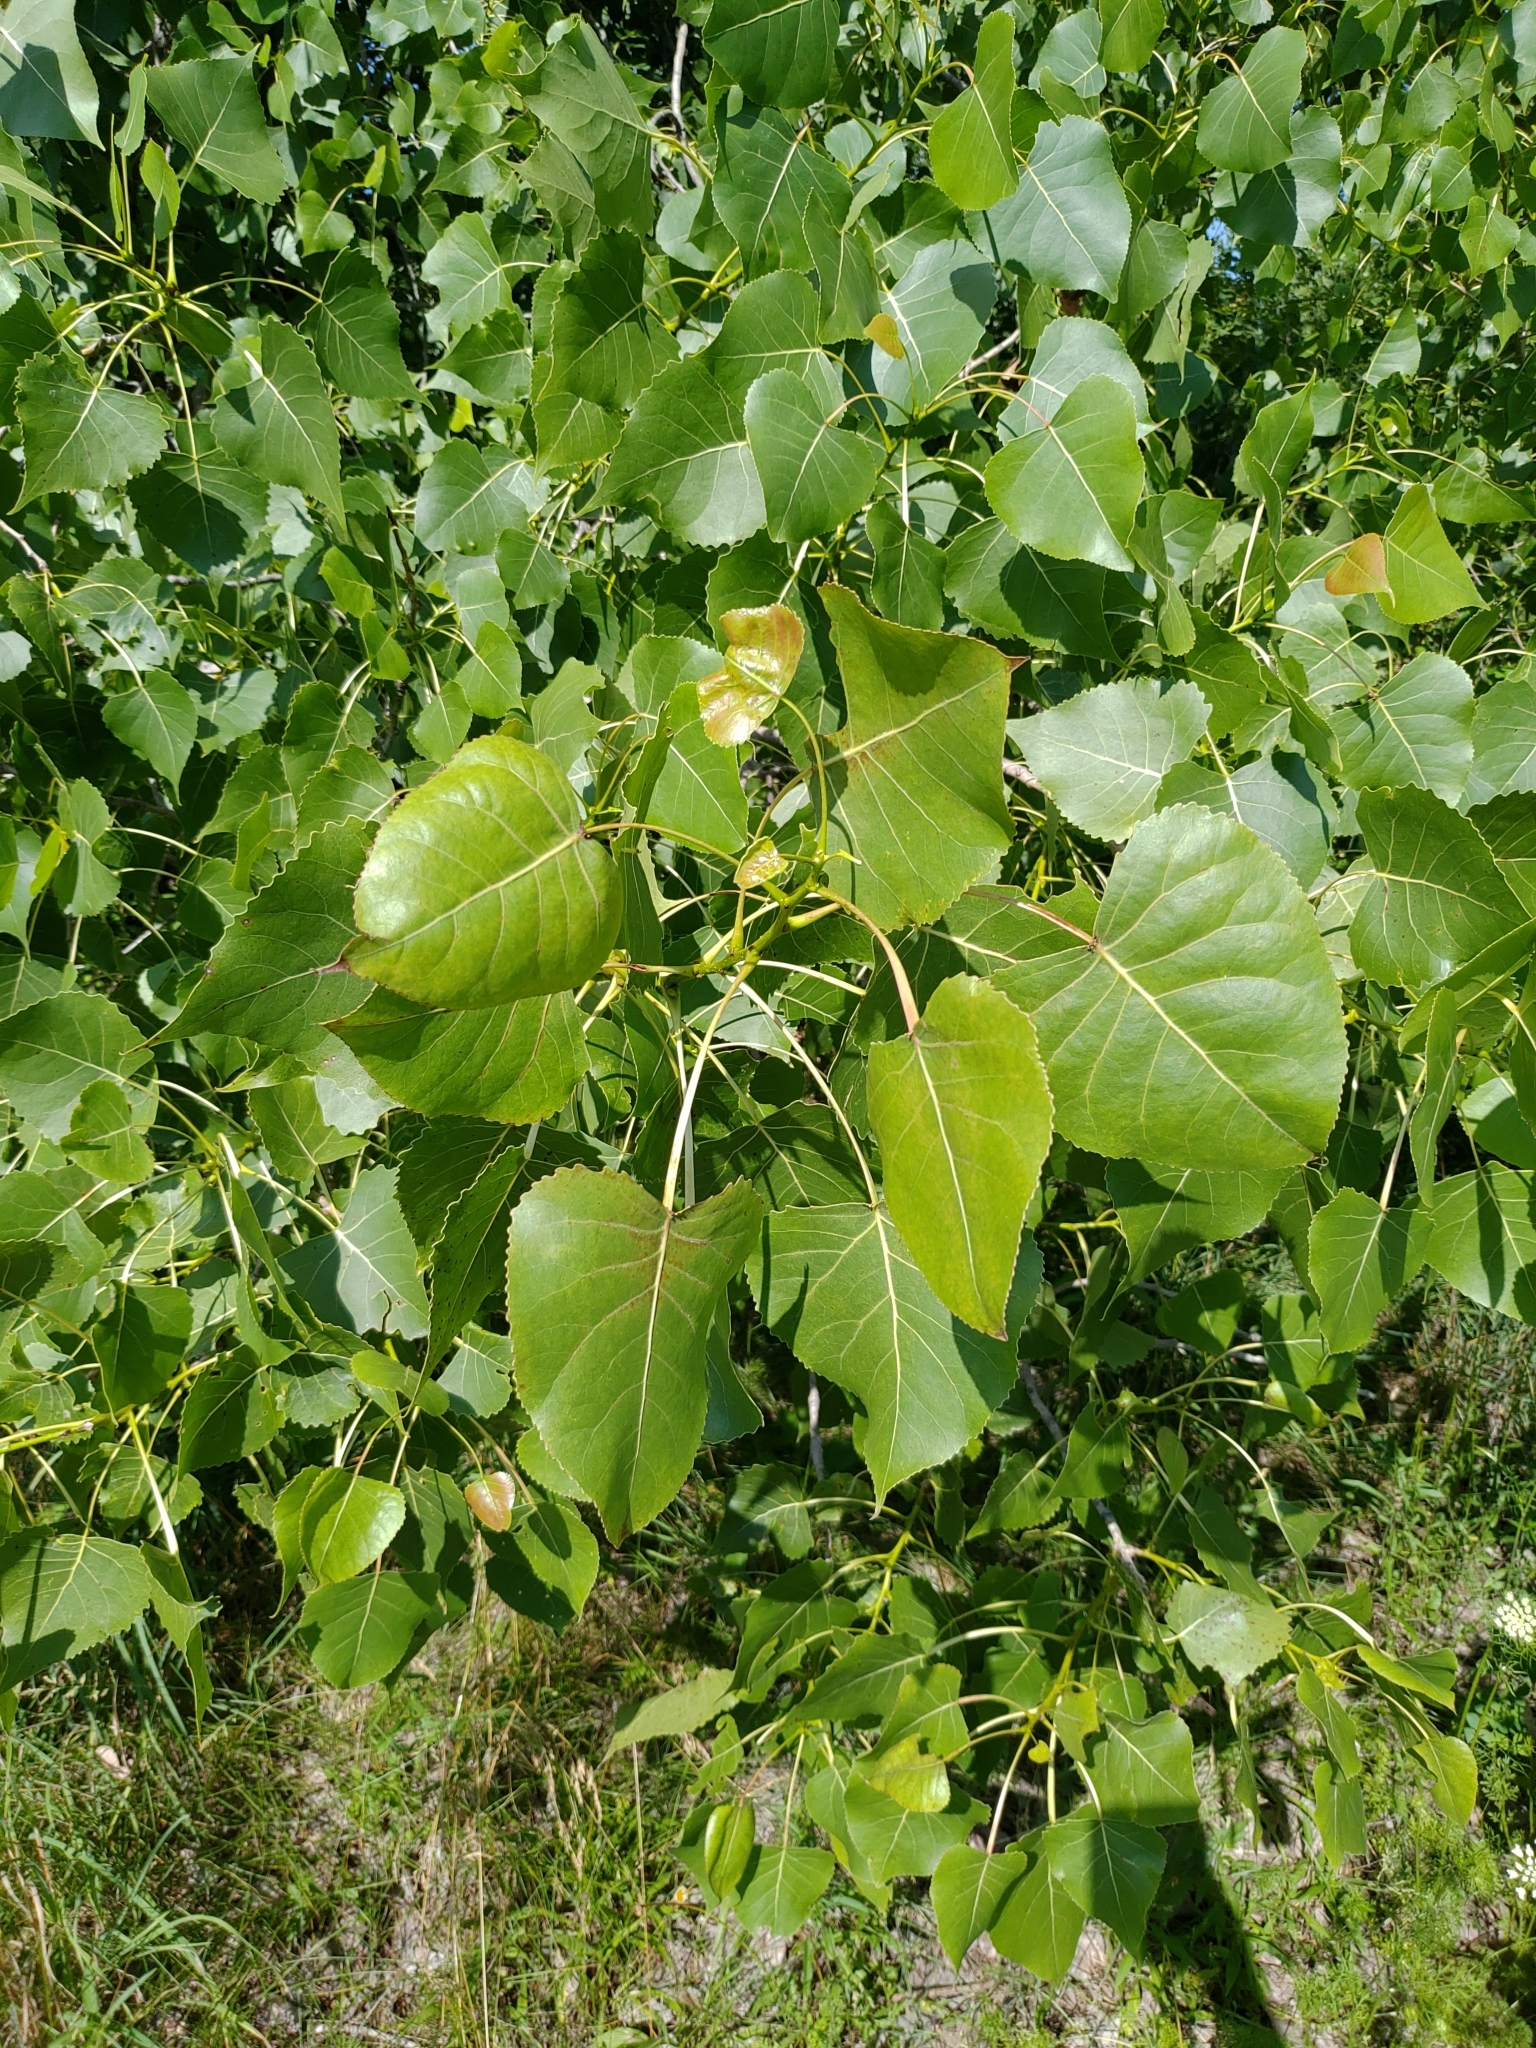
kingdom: Plantae
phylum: Tracheophyta
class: Magnoliopsida
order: Malpighiales
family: Salicaceae
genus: Populus
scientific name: Populus deltoides
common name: Eastern cottonwood
